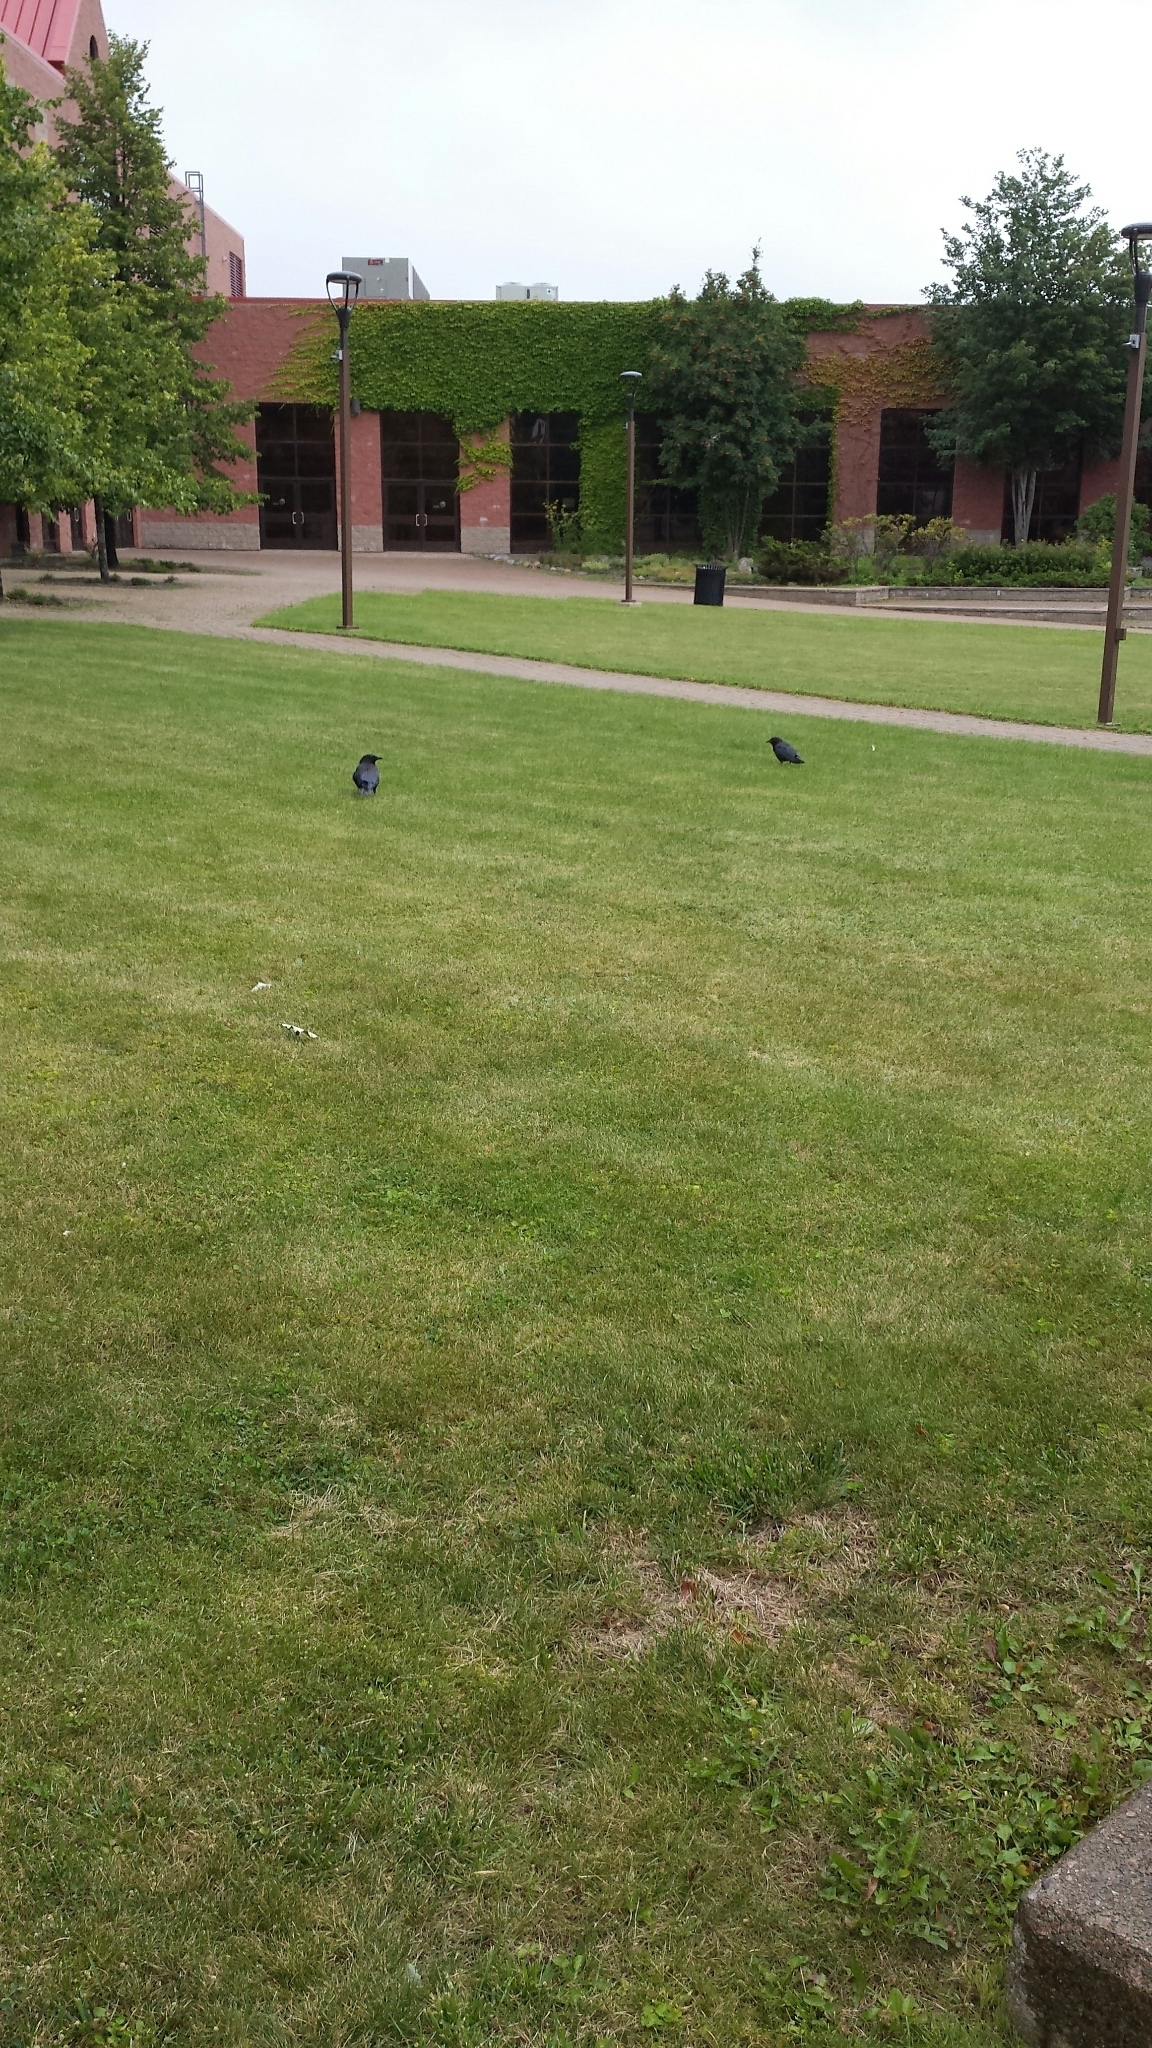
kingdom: Animalia
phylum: Chordata
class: Aves
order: Passeriformes
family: Corvidae
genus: Corvus
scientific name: Corvus brachyrhynchos
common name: American crow
